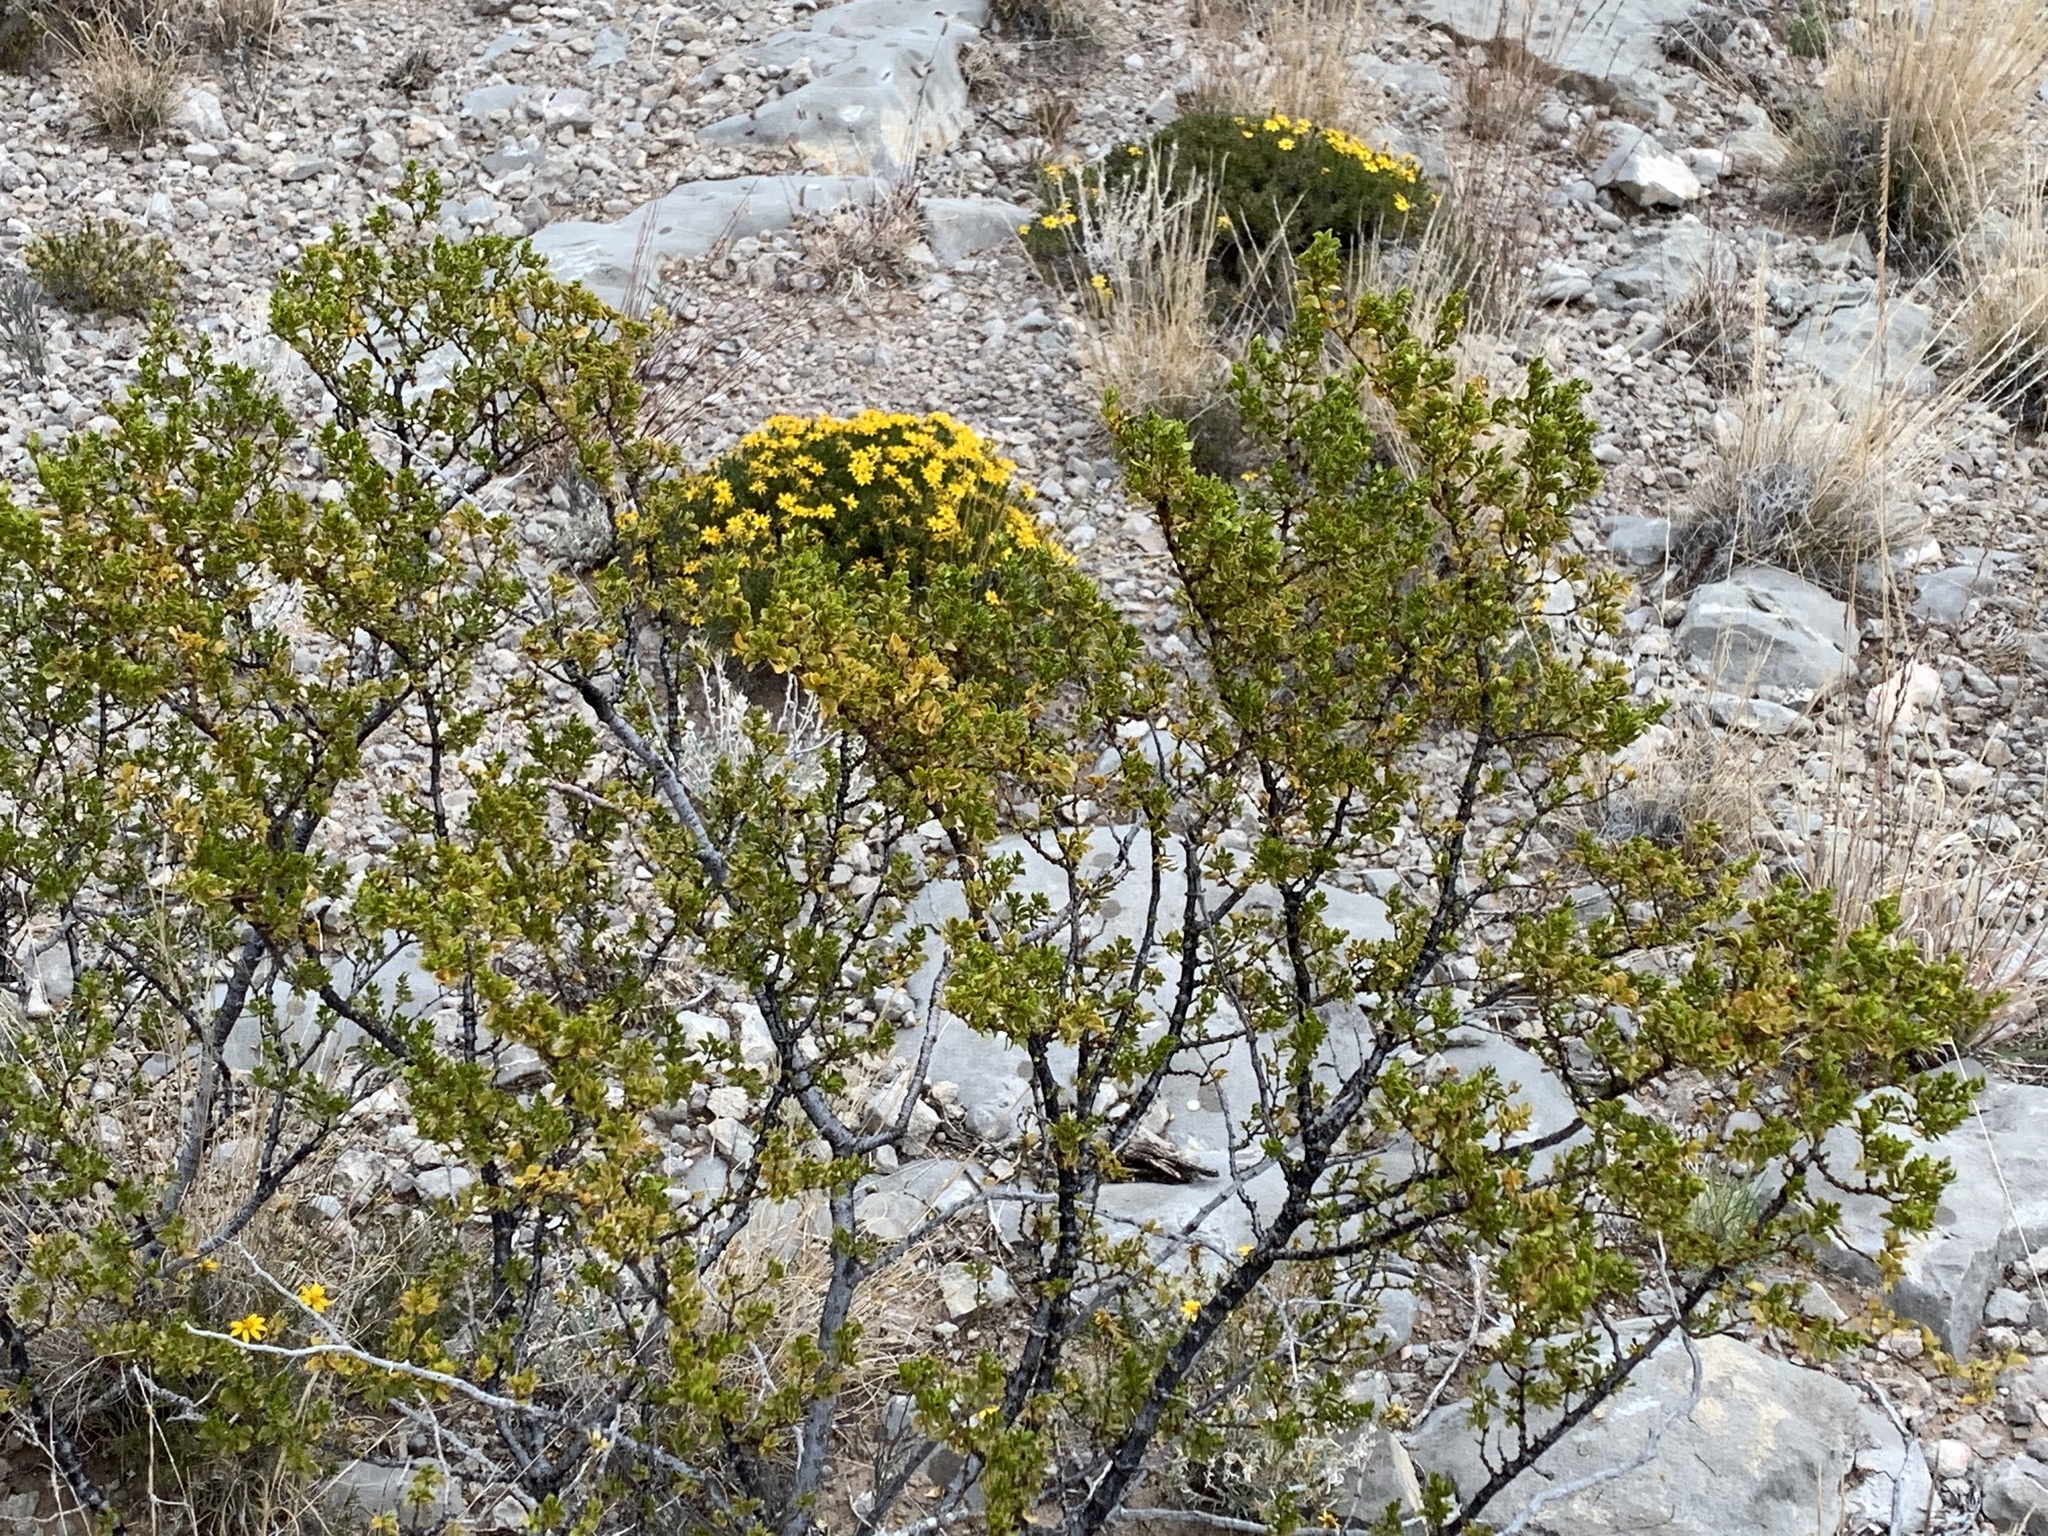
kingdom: Plantae
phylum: Tracheophyta
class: Magnoliopsida
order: Zygophyllales
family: Zygophyllaceae
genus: Larrea
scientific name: Larrea tridentata
